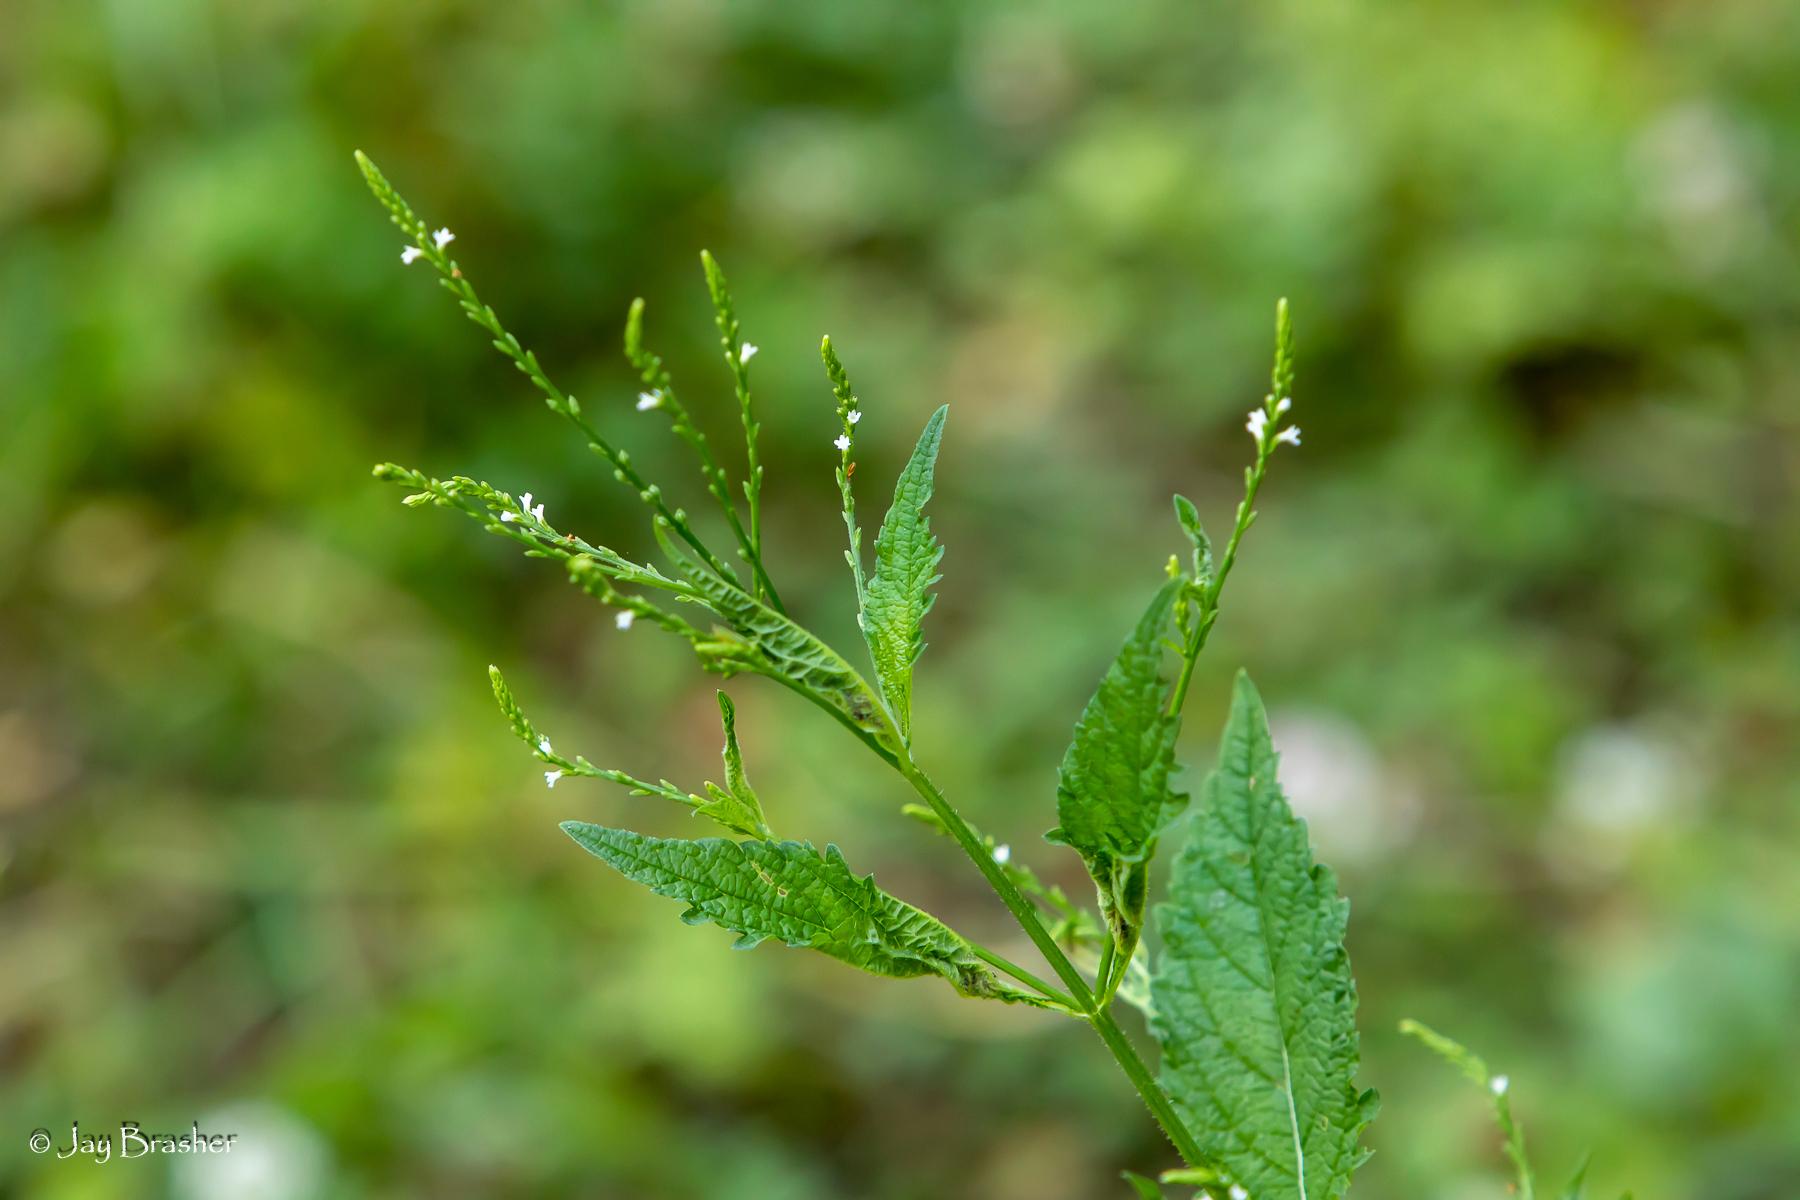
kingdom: Plantae
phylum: Tracheophyta
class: Magnoliopsida
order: Lamiales
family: Verbenaceae
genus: Verbena
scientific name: Verbena urticifolia
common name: Nettle-leaved vervain
